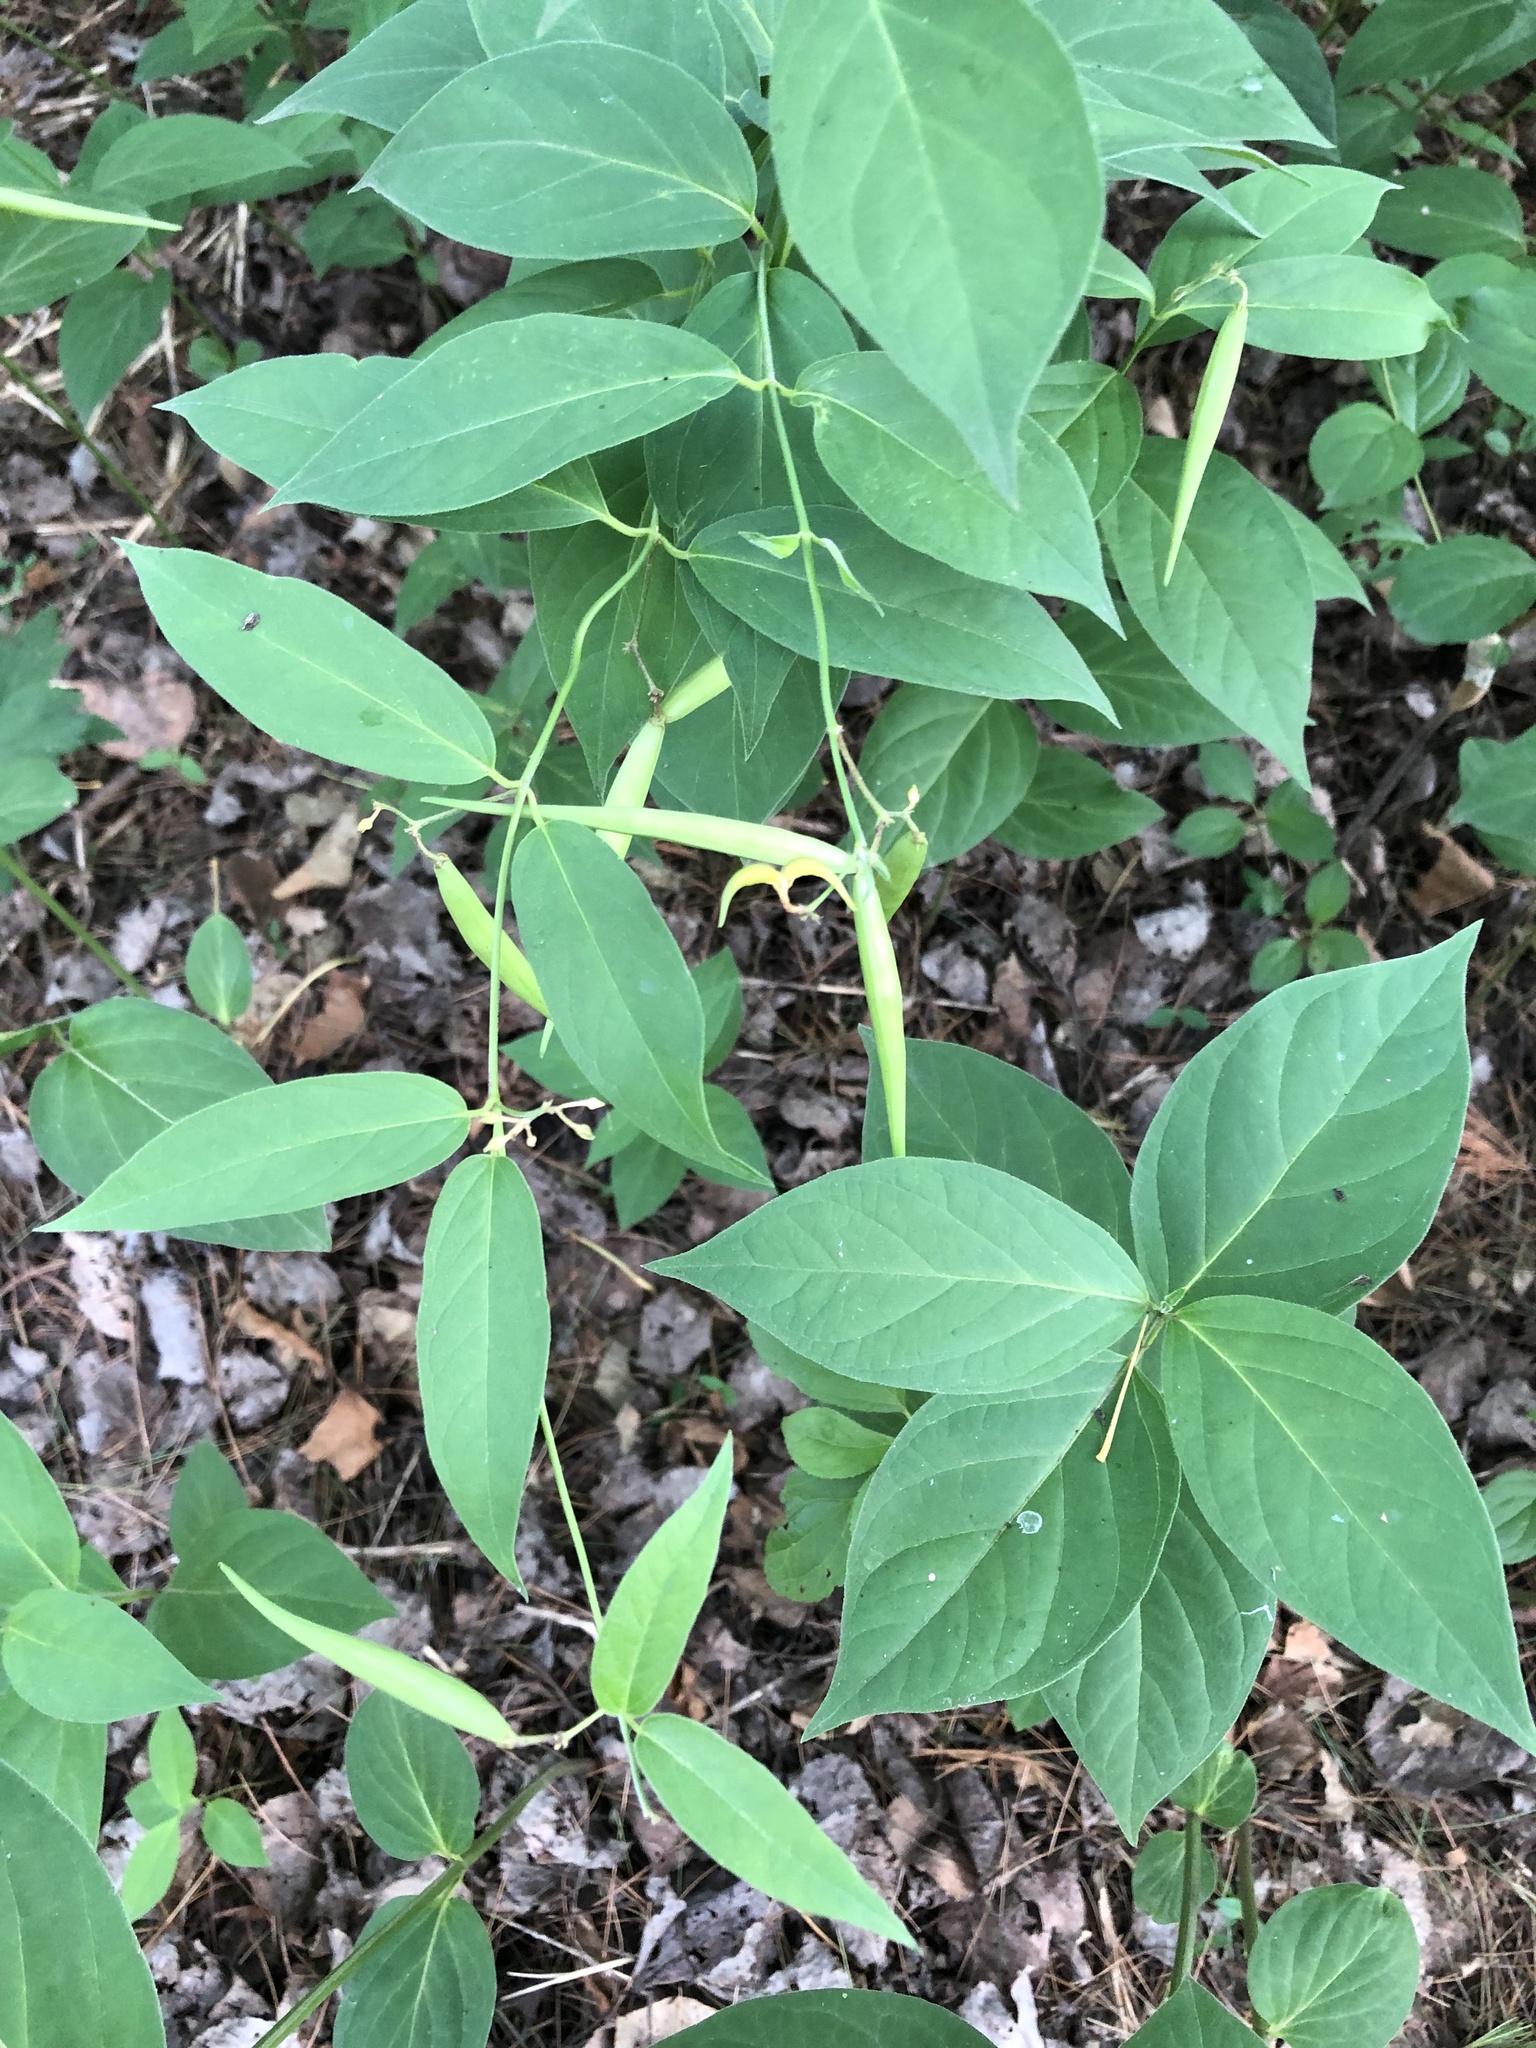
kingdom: Plantae
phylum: Tracheophyta
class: Magnoliopsida
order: Gentianales
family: Apocynaceae
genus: Vincetoxicum
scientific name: Vincetoxicum rossicum
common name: Dog-strangling vine
